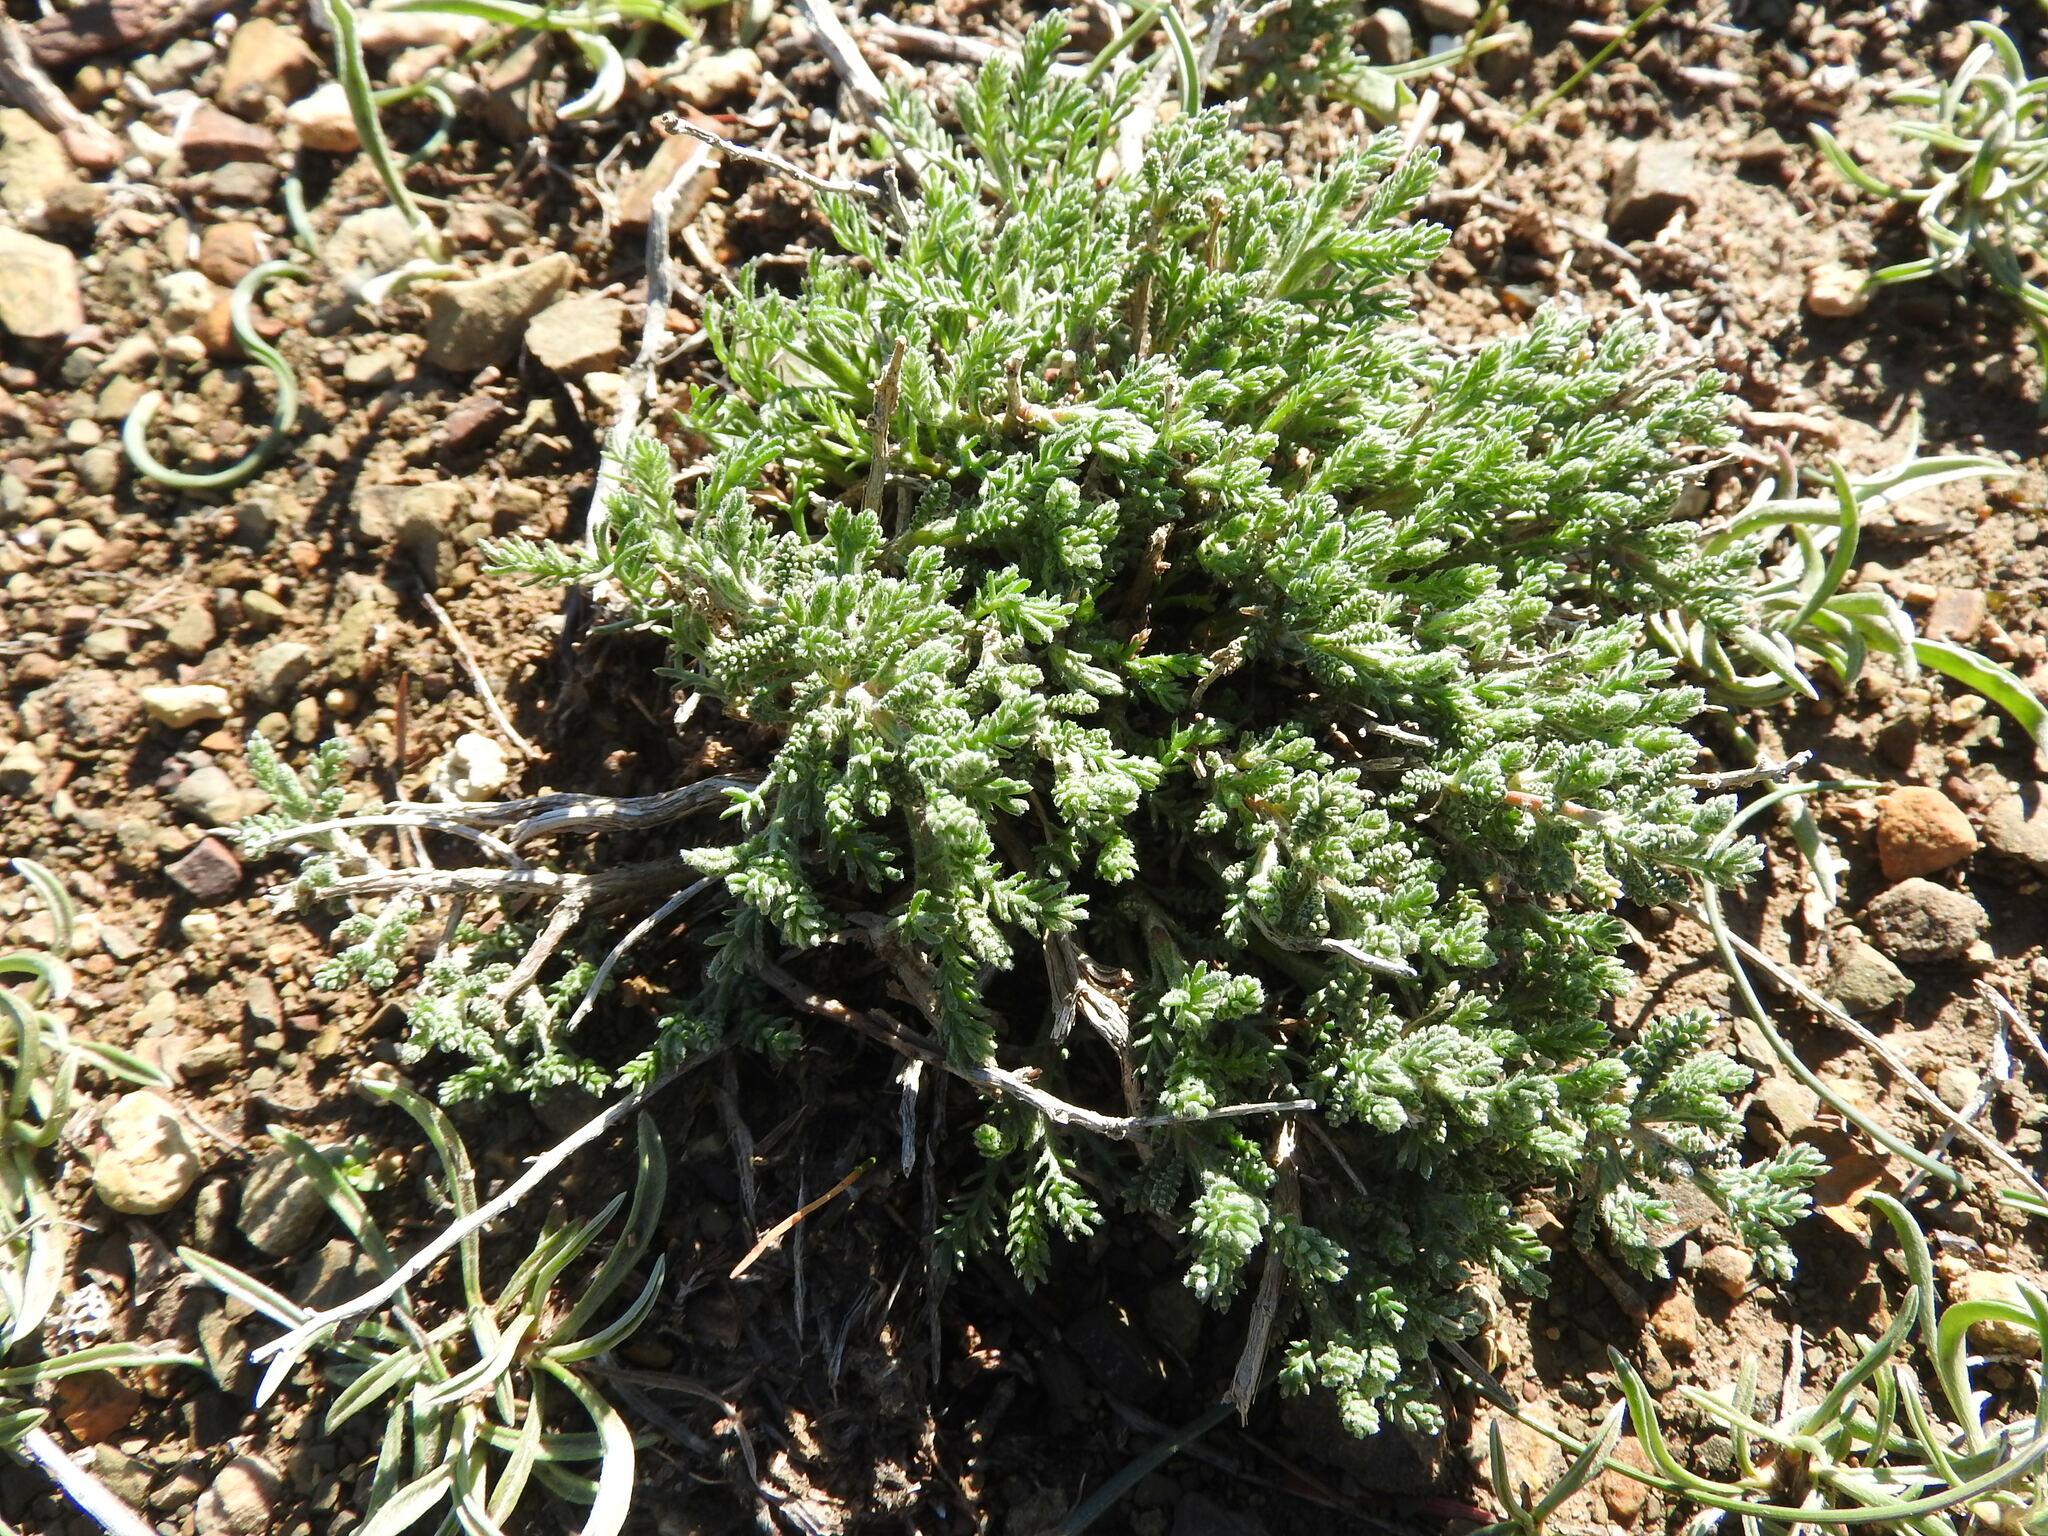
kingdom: Plantae
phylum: Tracheophyta
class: Magnoliopsida
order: Asterales
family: Asteraceae
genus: Santolina
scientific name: Santolina africana
